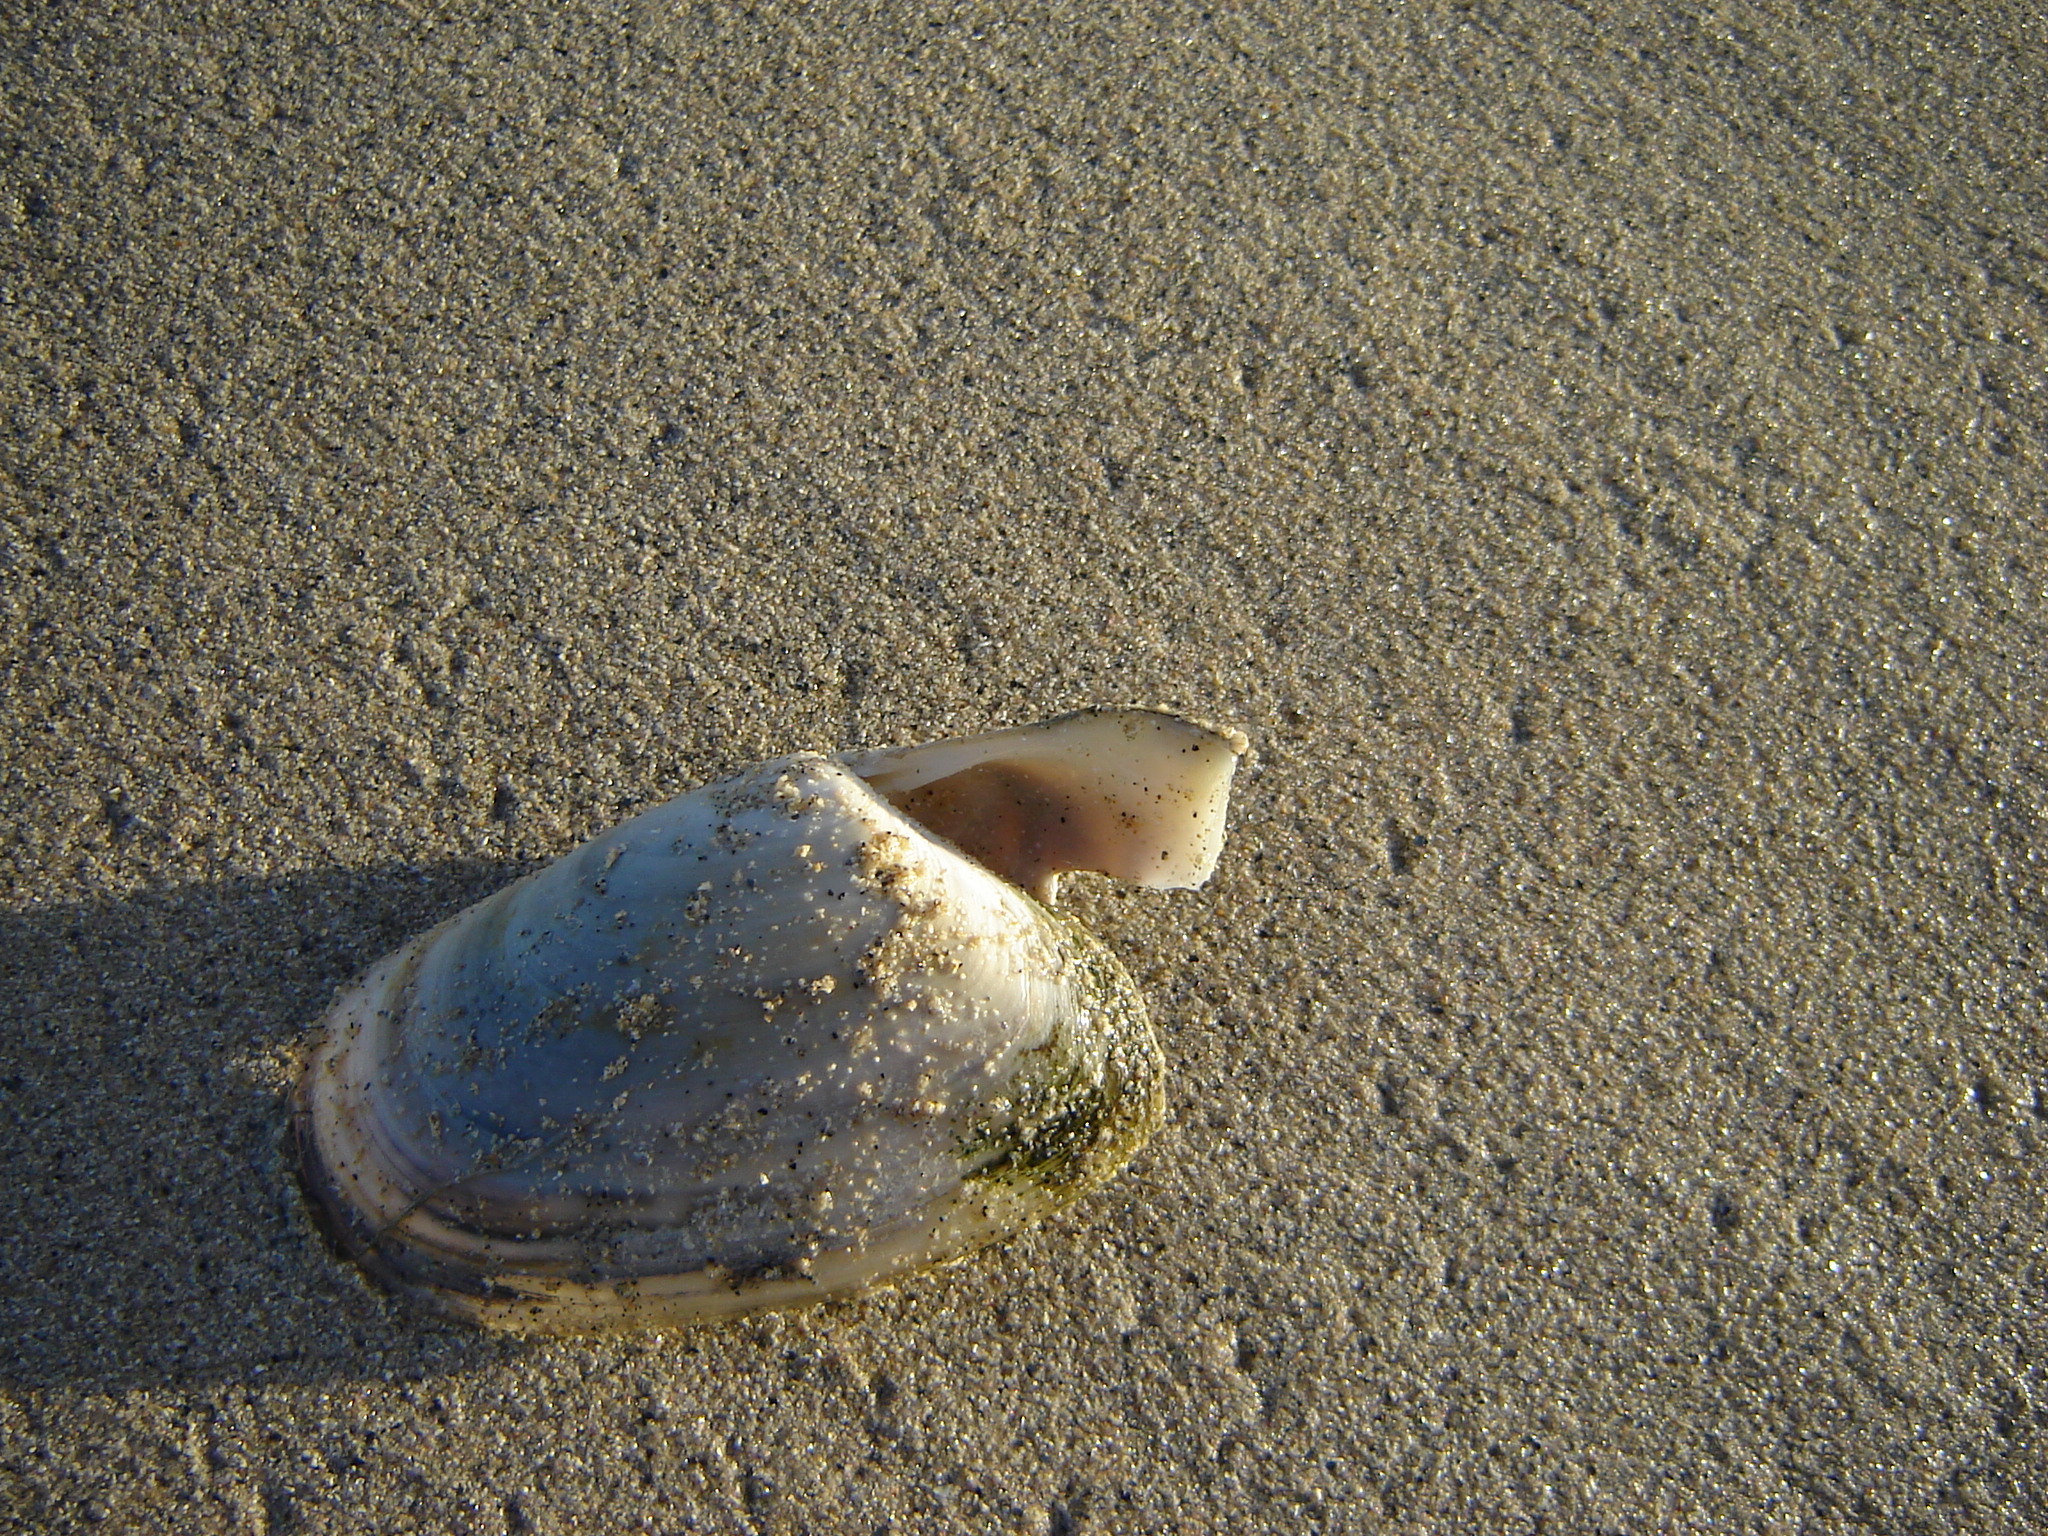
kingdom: Animalia
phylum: Mollusca
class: Bivalvia
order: Venerida
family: Mesodesmatidae
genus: Paphies
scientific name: Paphies subtriangulata
